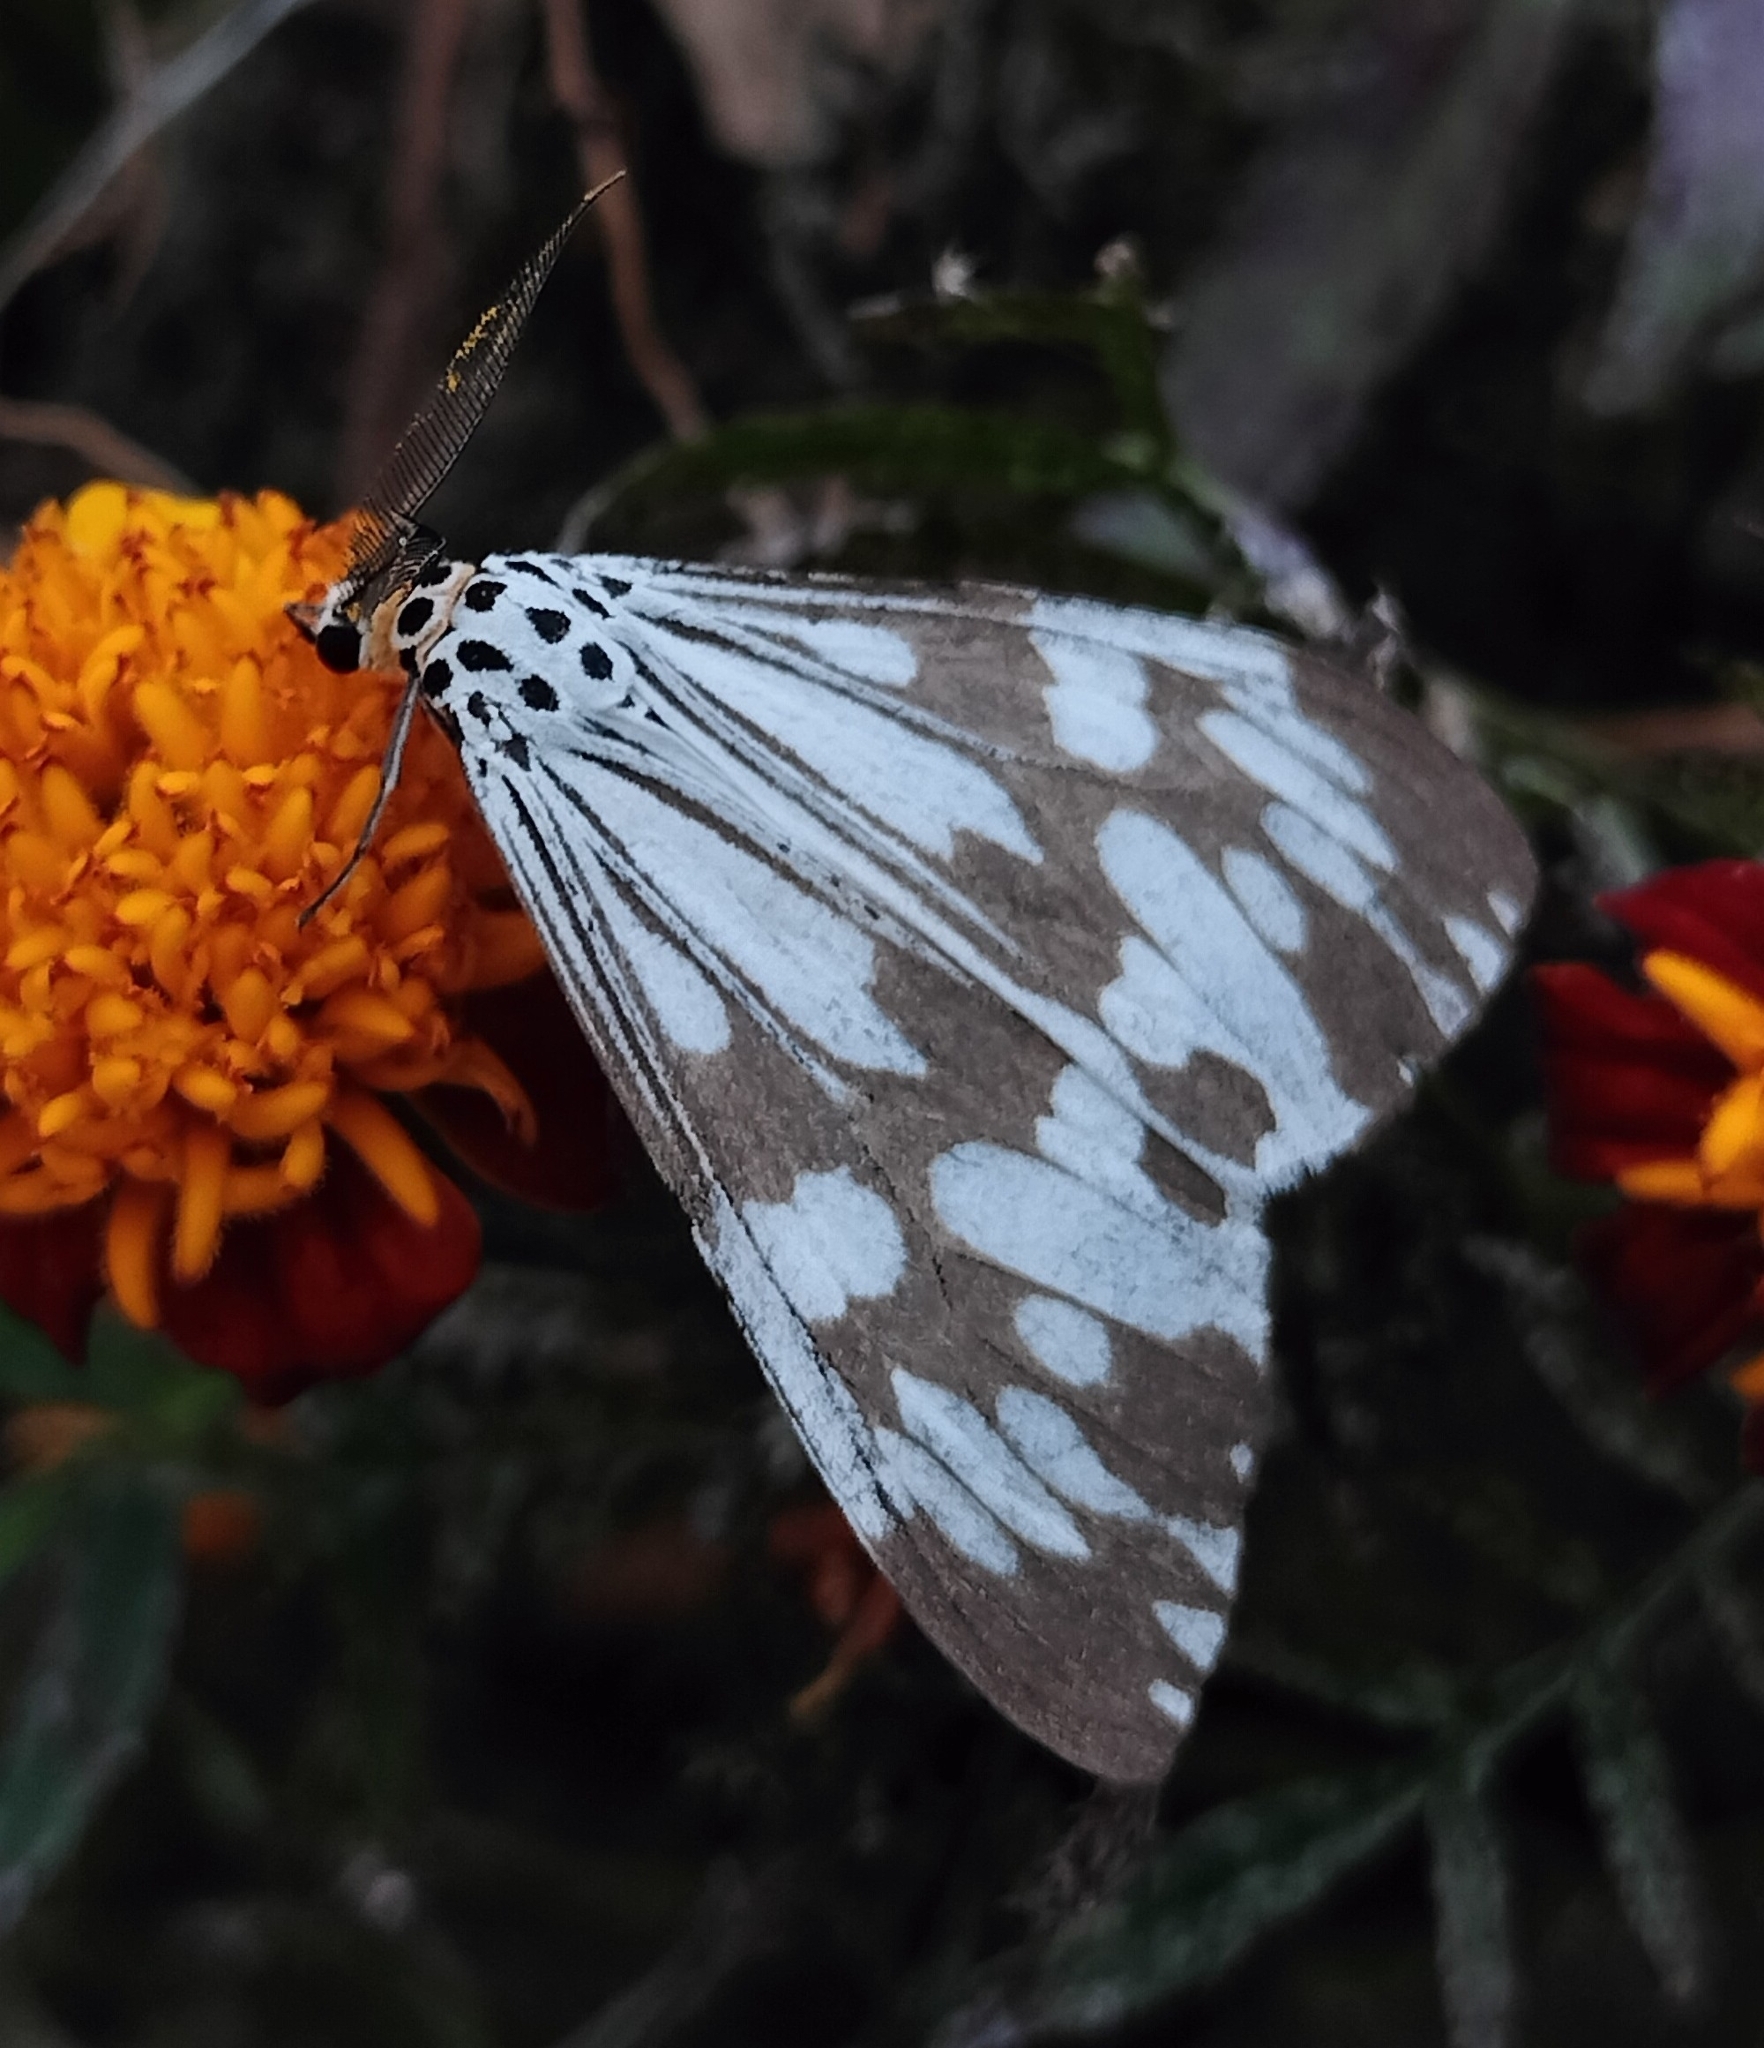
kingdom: Animalia
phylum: Arthropoda
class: Insecta
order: Lepidoptera
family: Erebidae
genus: Nyctemera
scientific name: Nyctemera adversata
